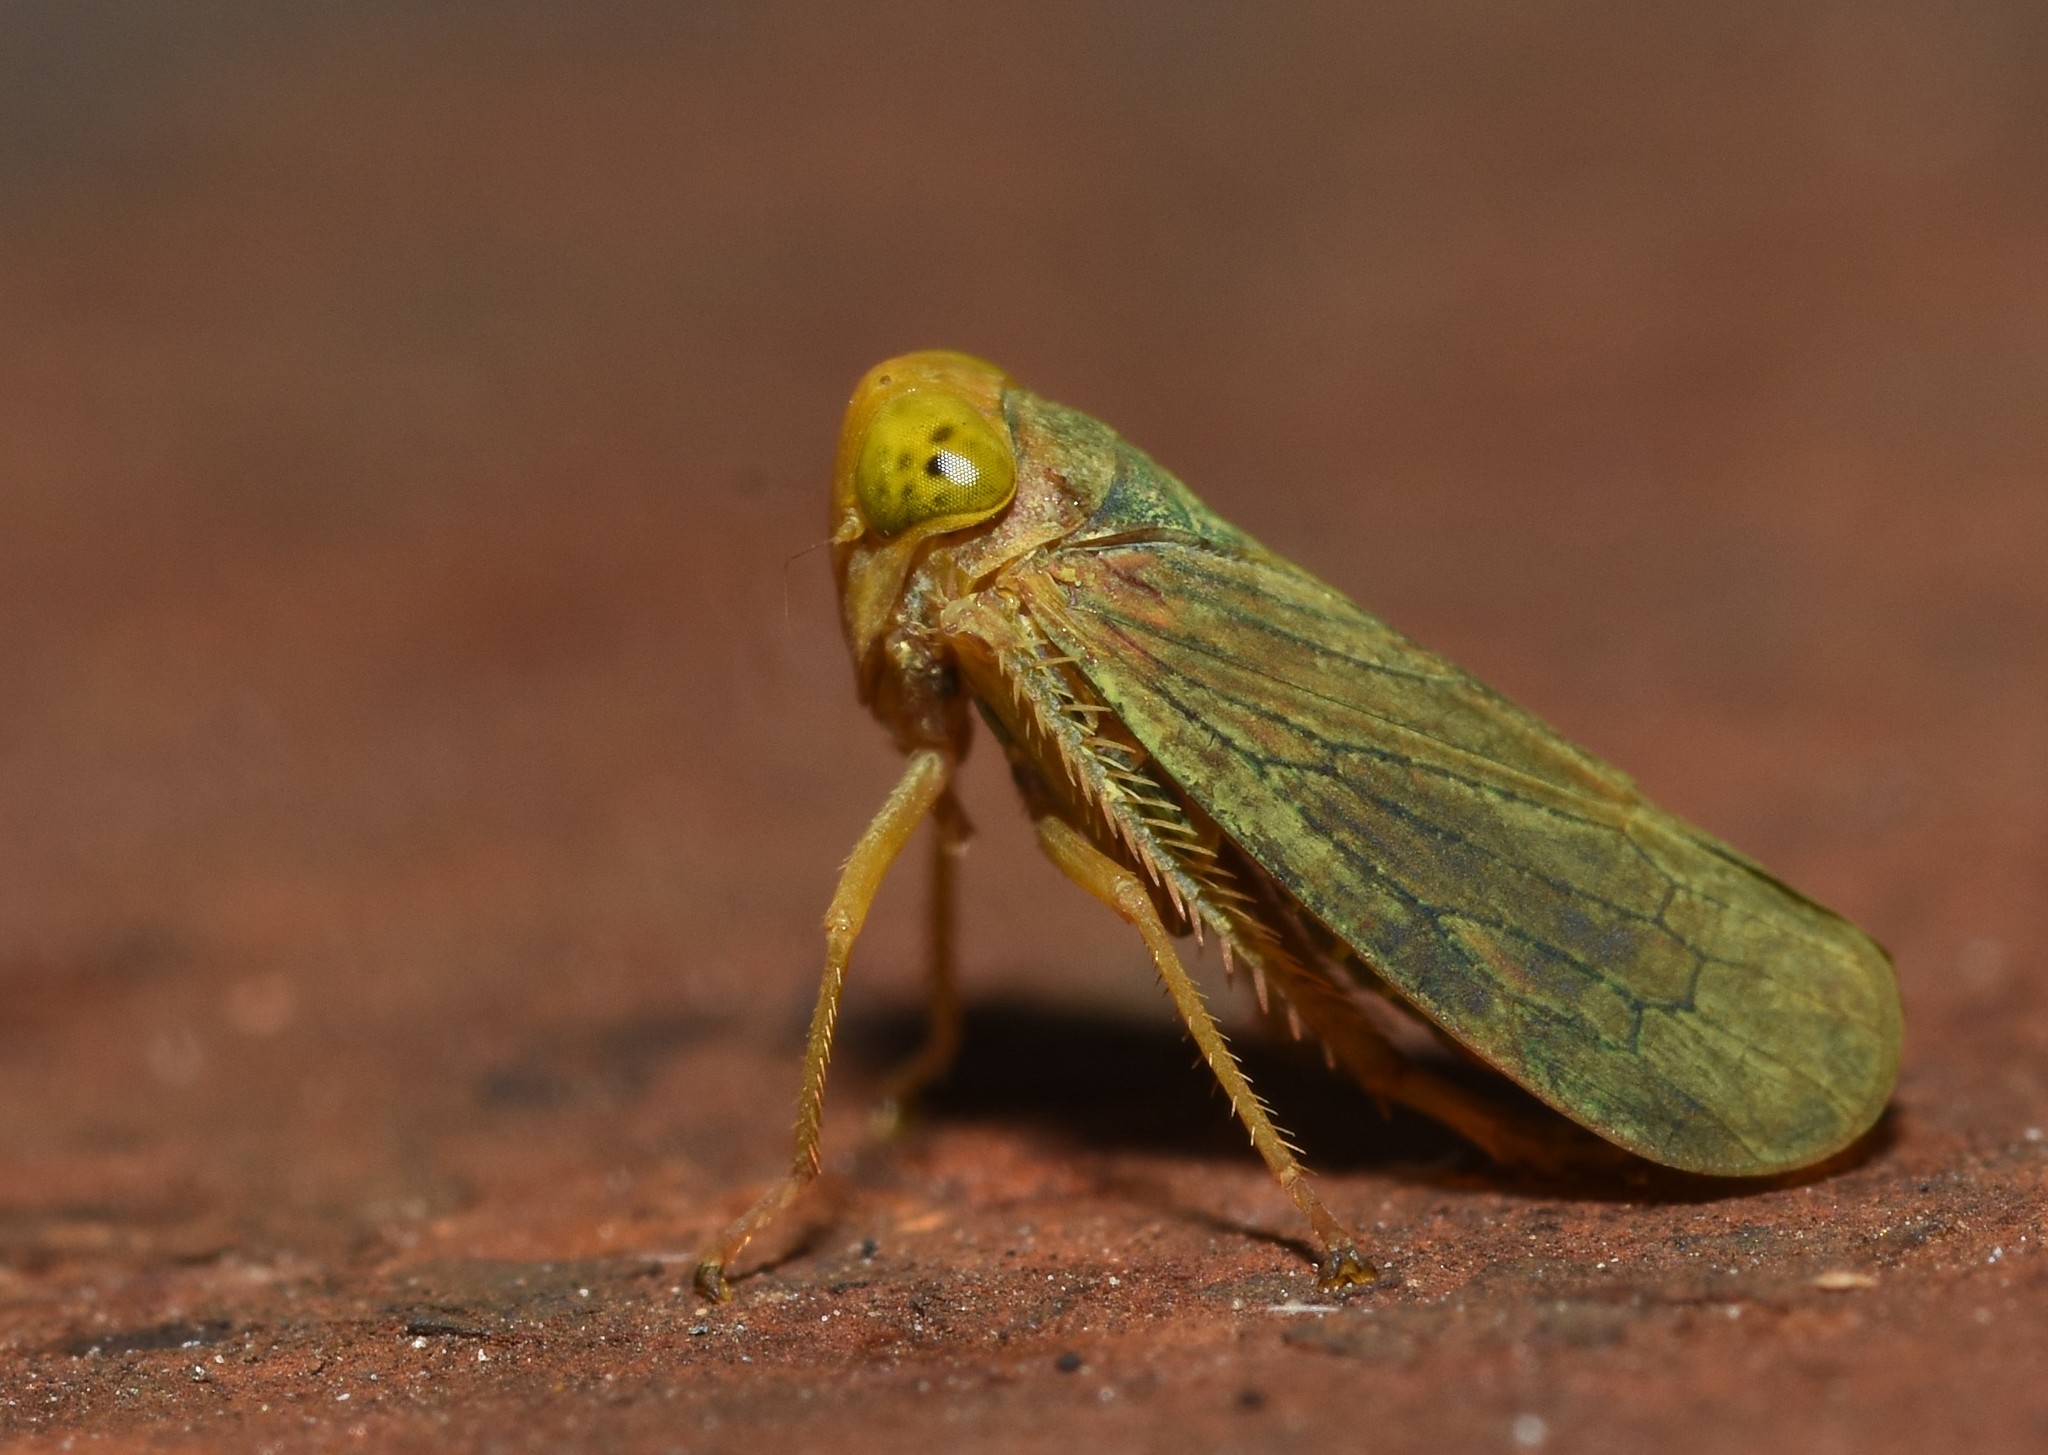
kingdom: Animalia
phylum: Arthropoda
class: Insecta
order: Hemiptera
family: Cicadellidae
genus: Jikradia
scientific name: Jikradia olitoria
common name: Coppery leafhopper
